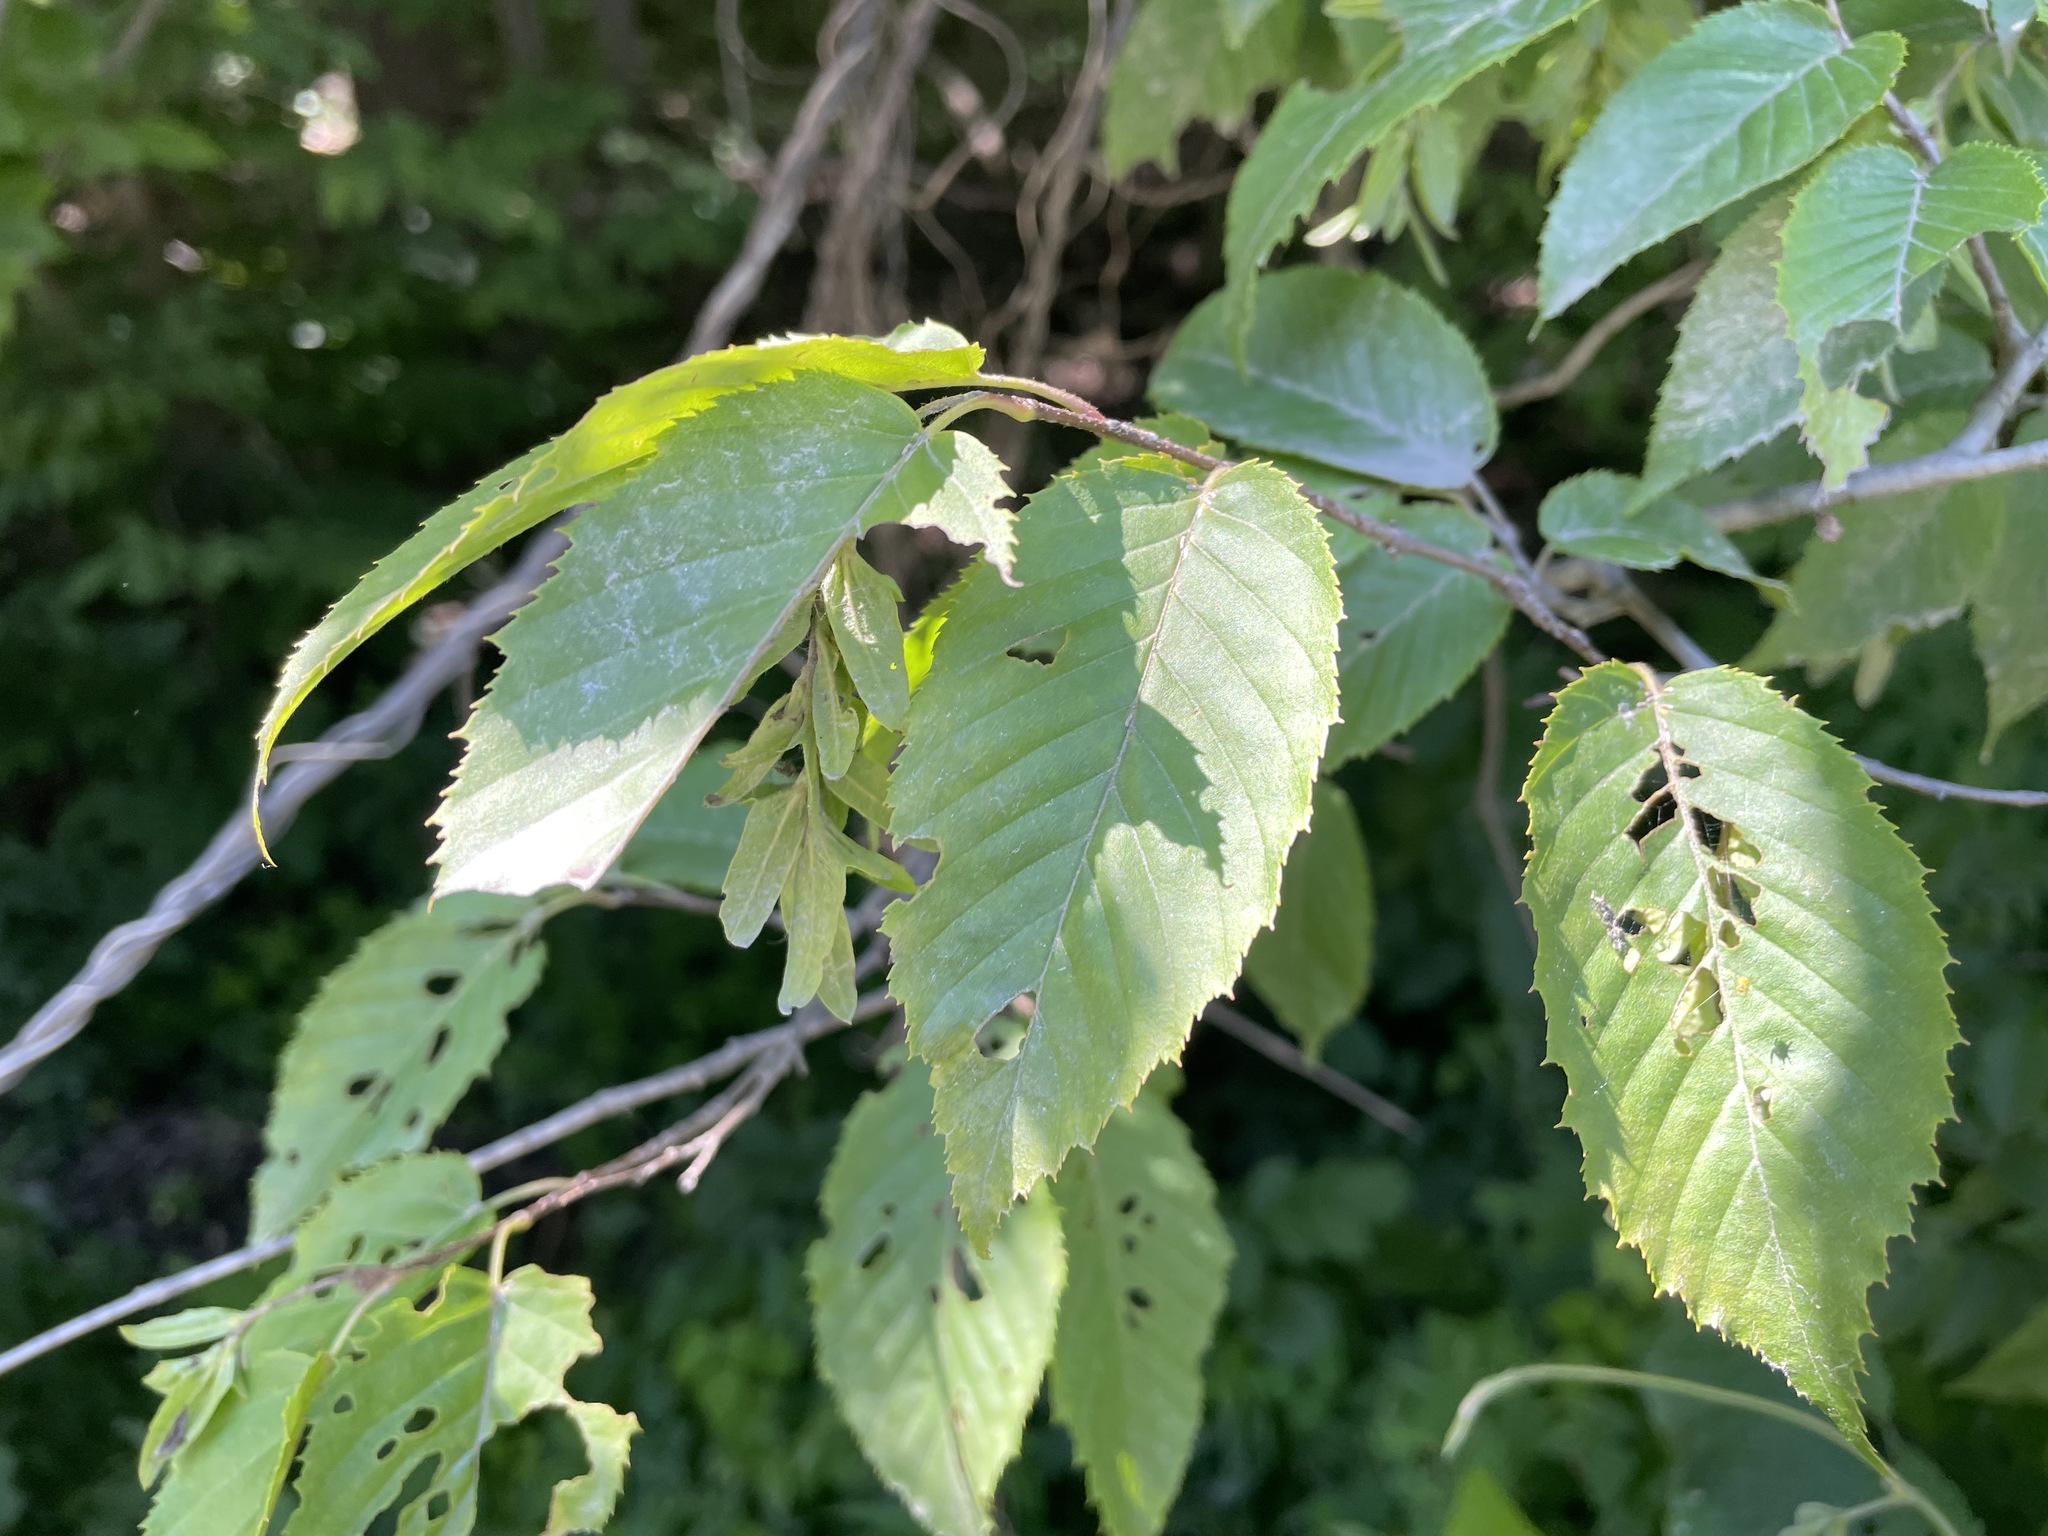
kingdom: Plantae
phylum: Tracheophyta
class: Magnoliopsida
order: Fagales
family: Betulaceae
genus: Carpinus
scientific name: Carpinus caroliniana
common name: American hornbeam
